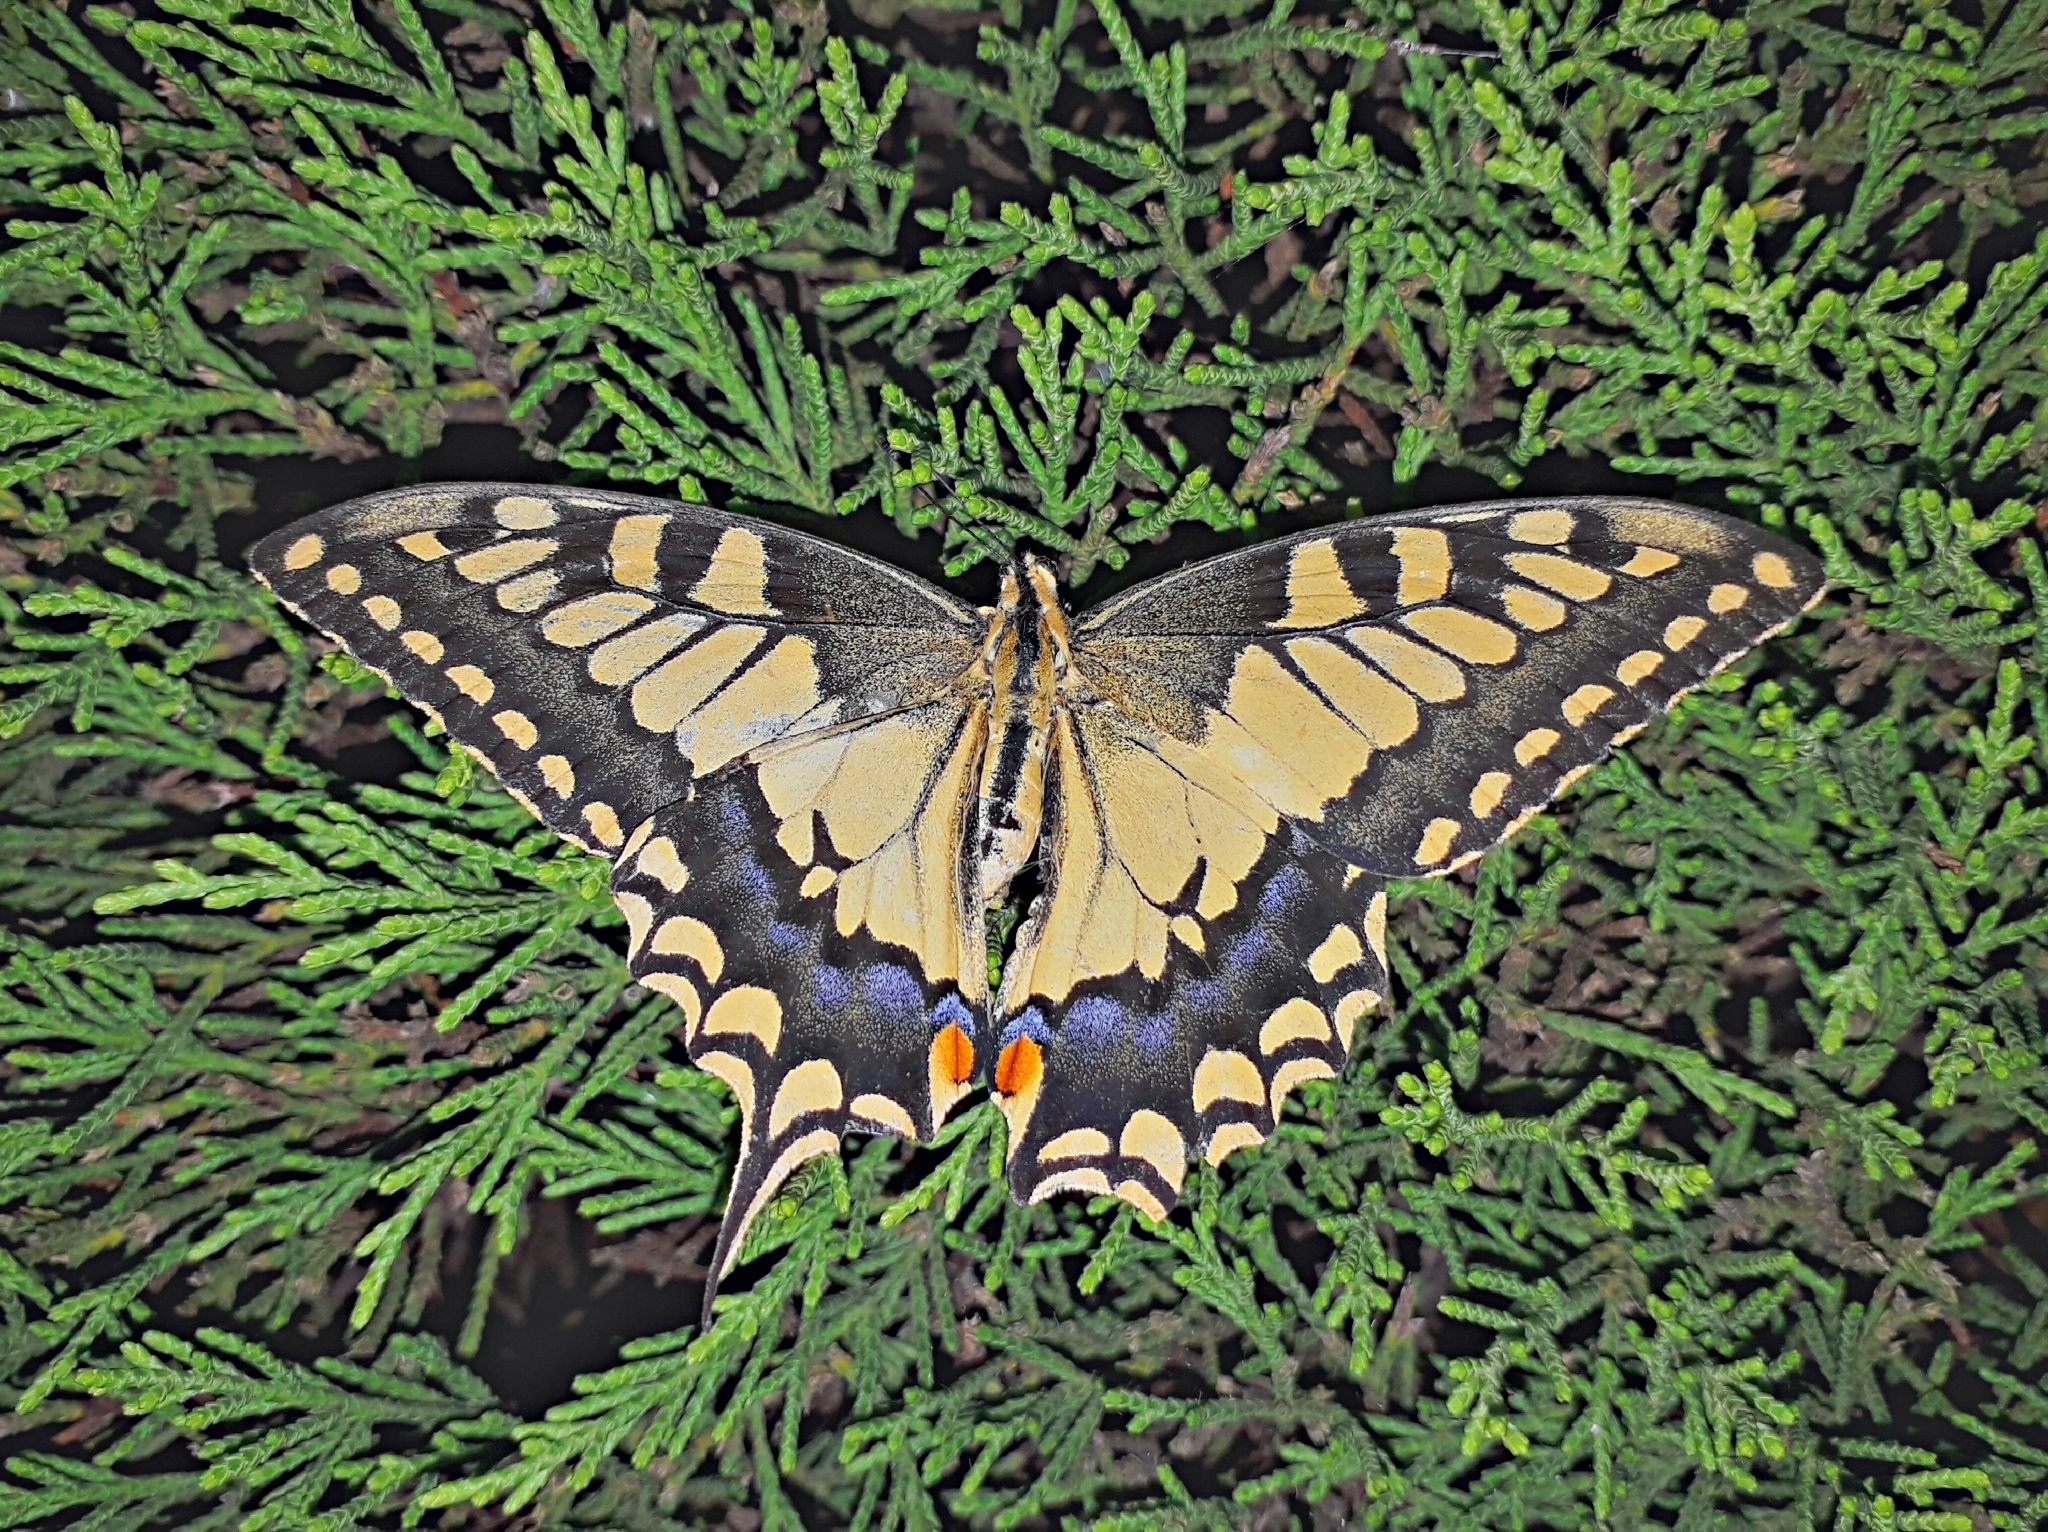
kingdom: Animalia
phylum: Arthropoda
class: Insecta
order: Lepidoptera
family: Papilionidae
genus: Papilio
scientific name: Papilio machaon
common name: Swallowtail
